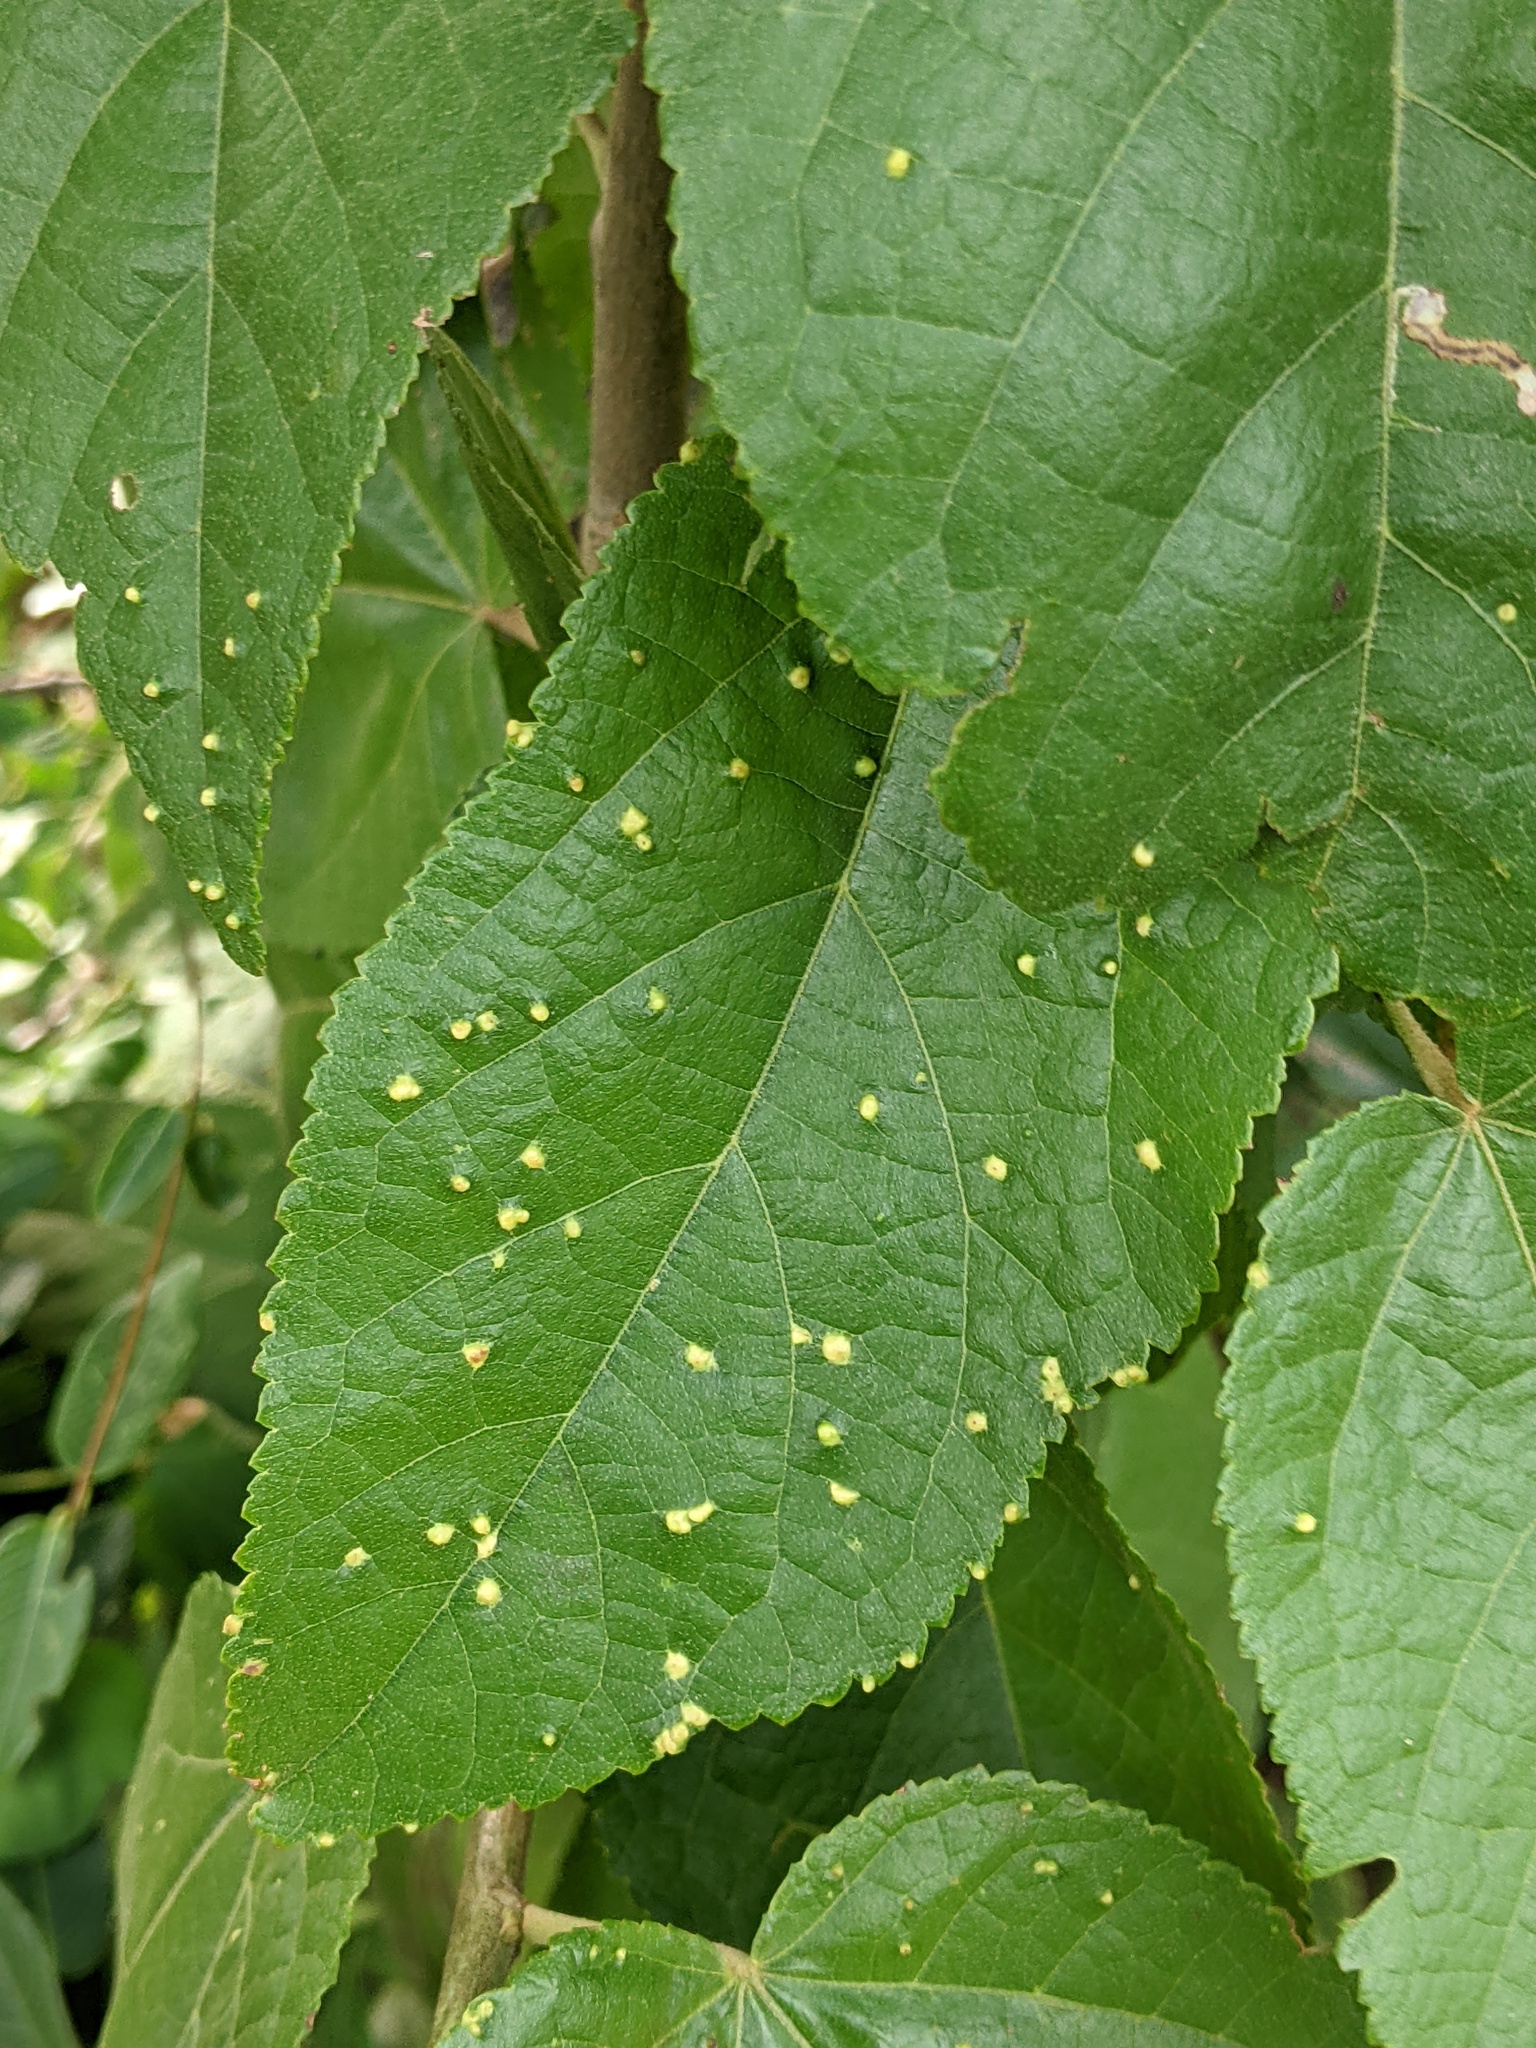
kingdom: Animalia
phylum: Arthropoda
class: Arachnida
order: Trombidiformes
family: Eriophyidae
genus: Aceria
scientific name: Aceria
